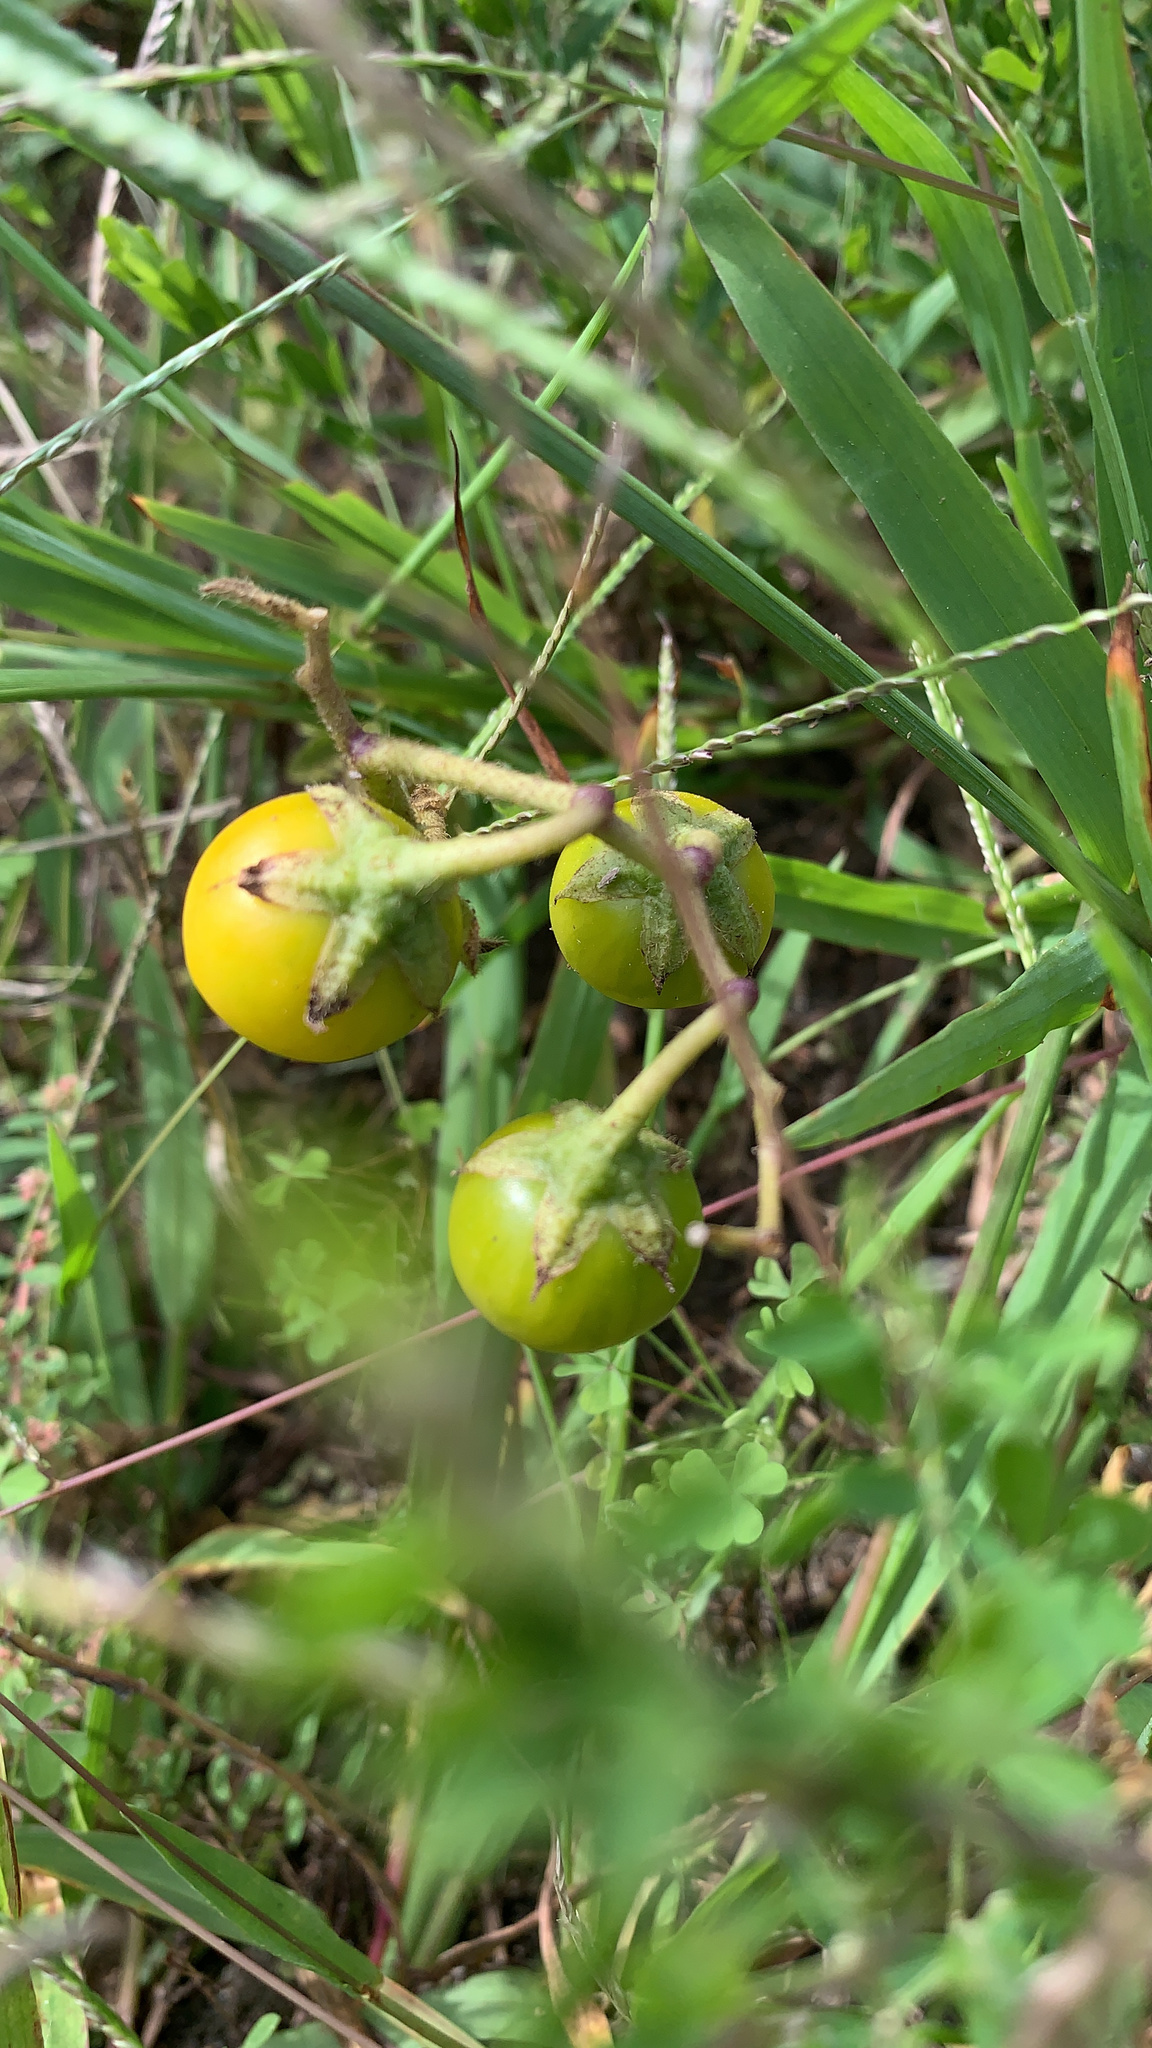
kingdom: Plantae
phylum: Tracheophyta
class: Magnoliopsida
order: Solanales
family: Solanaceae
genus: Solanum
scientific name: Solanum carolinense
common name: Horse-nettle
